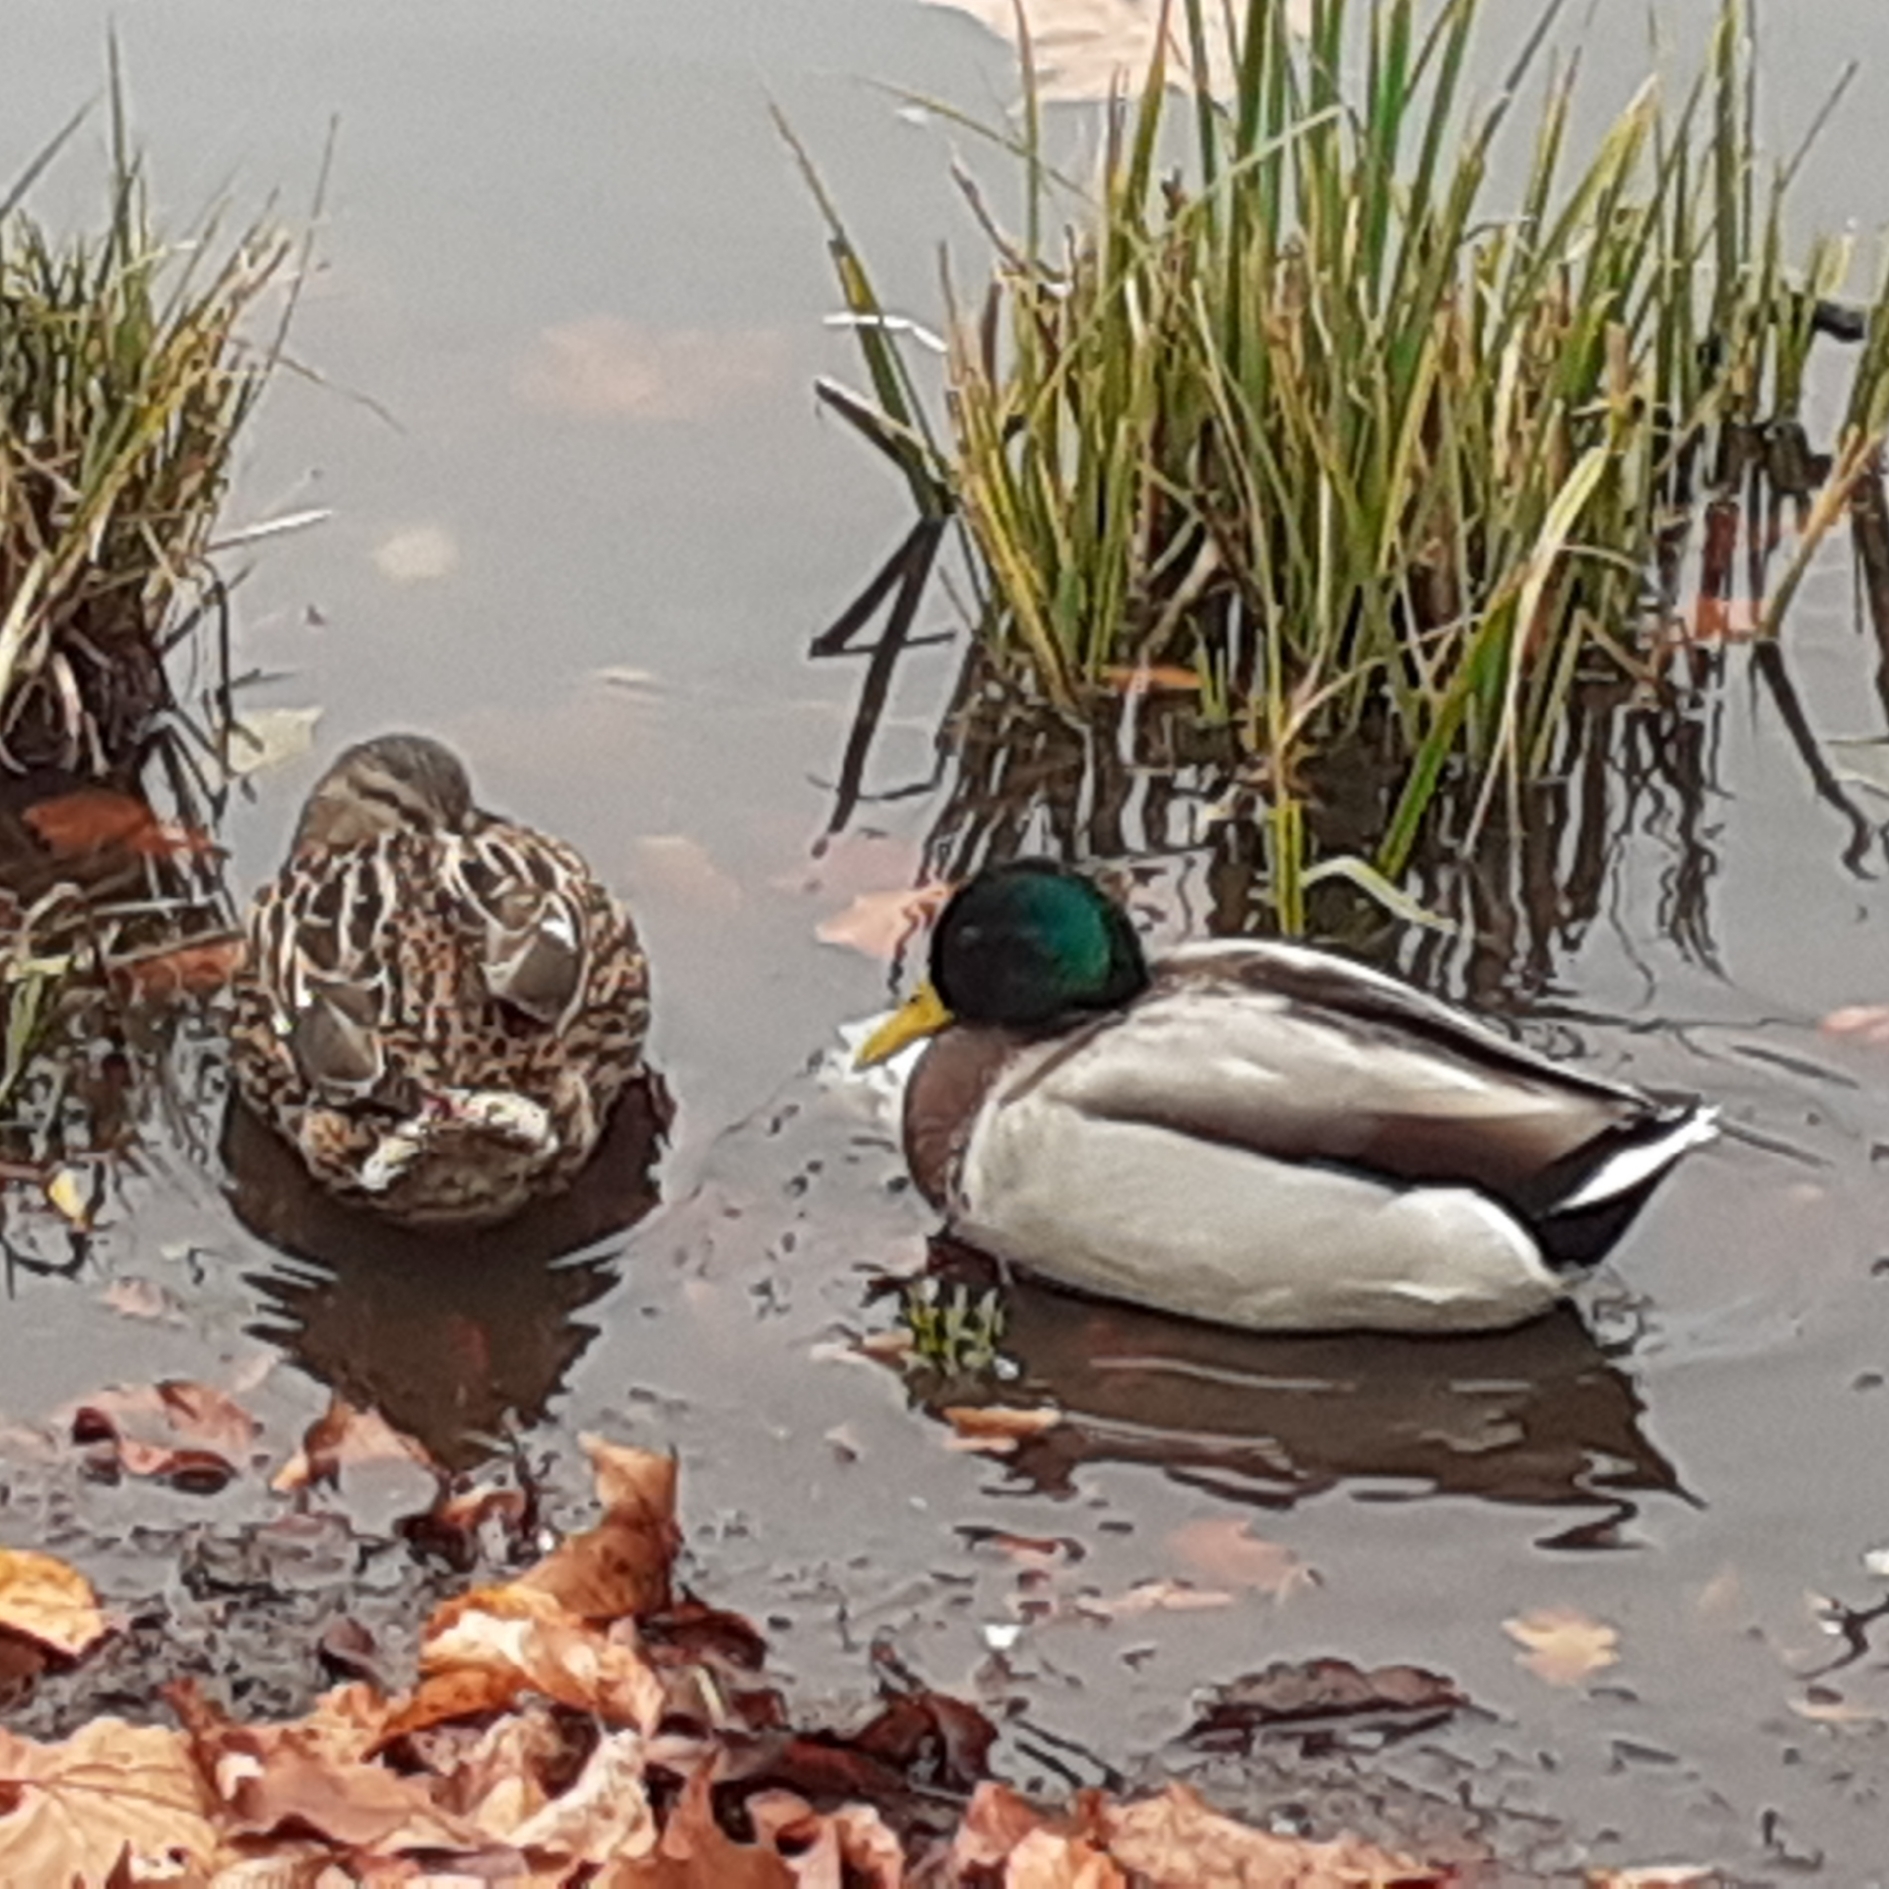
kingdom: Animalia
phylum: Chordata
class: Aves
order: Anseriformes
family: Anatidae
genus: Anas
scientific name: Anas platyrhynchos
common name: Mallard
